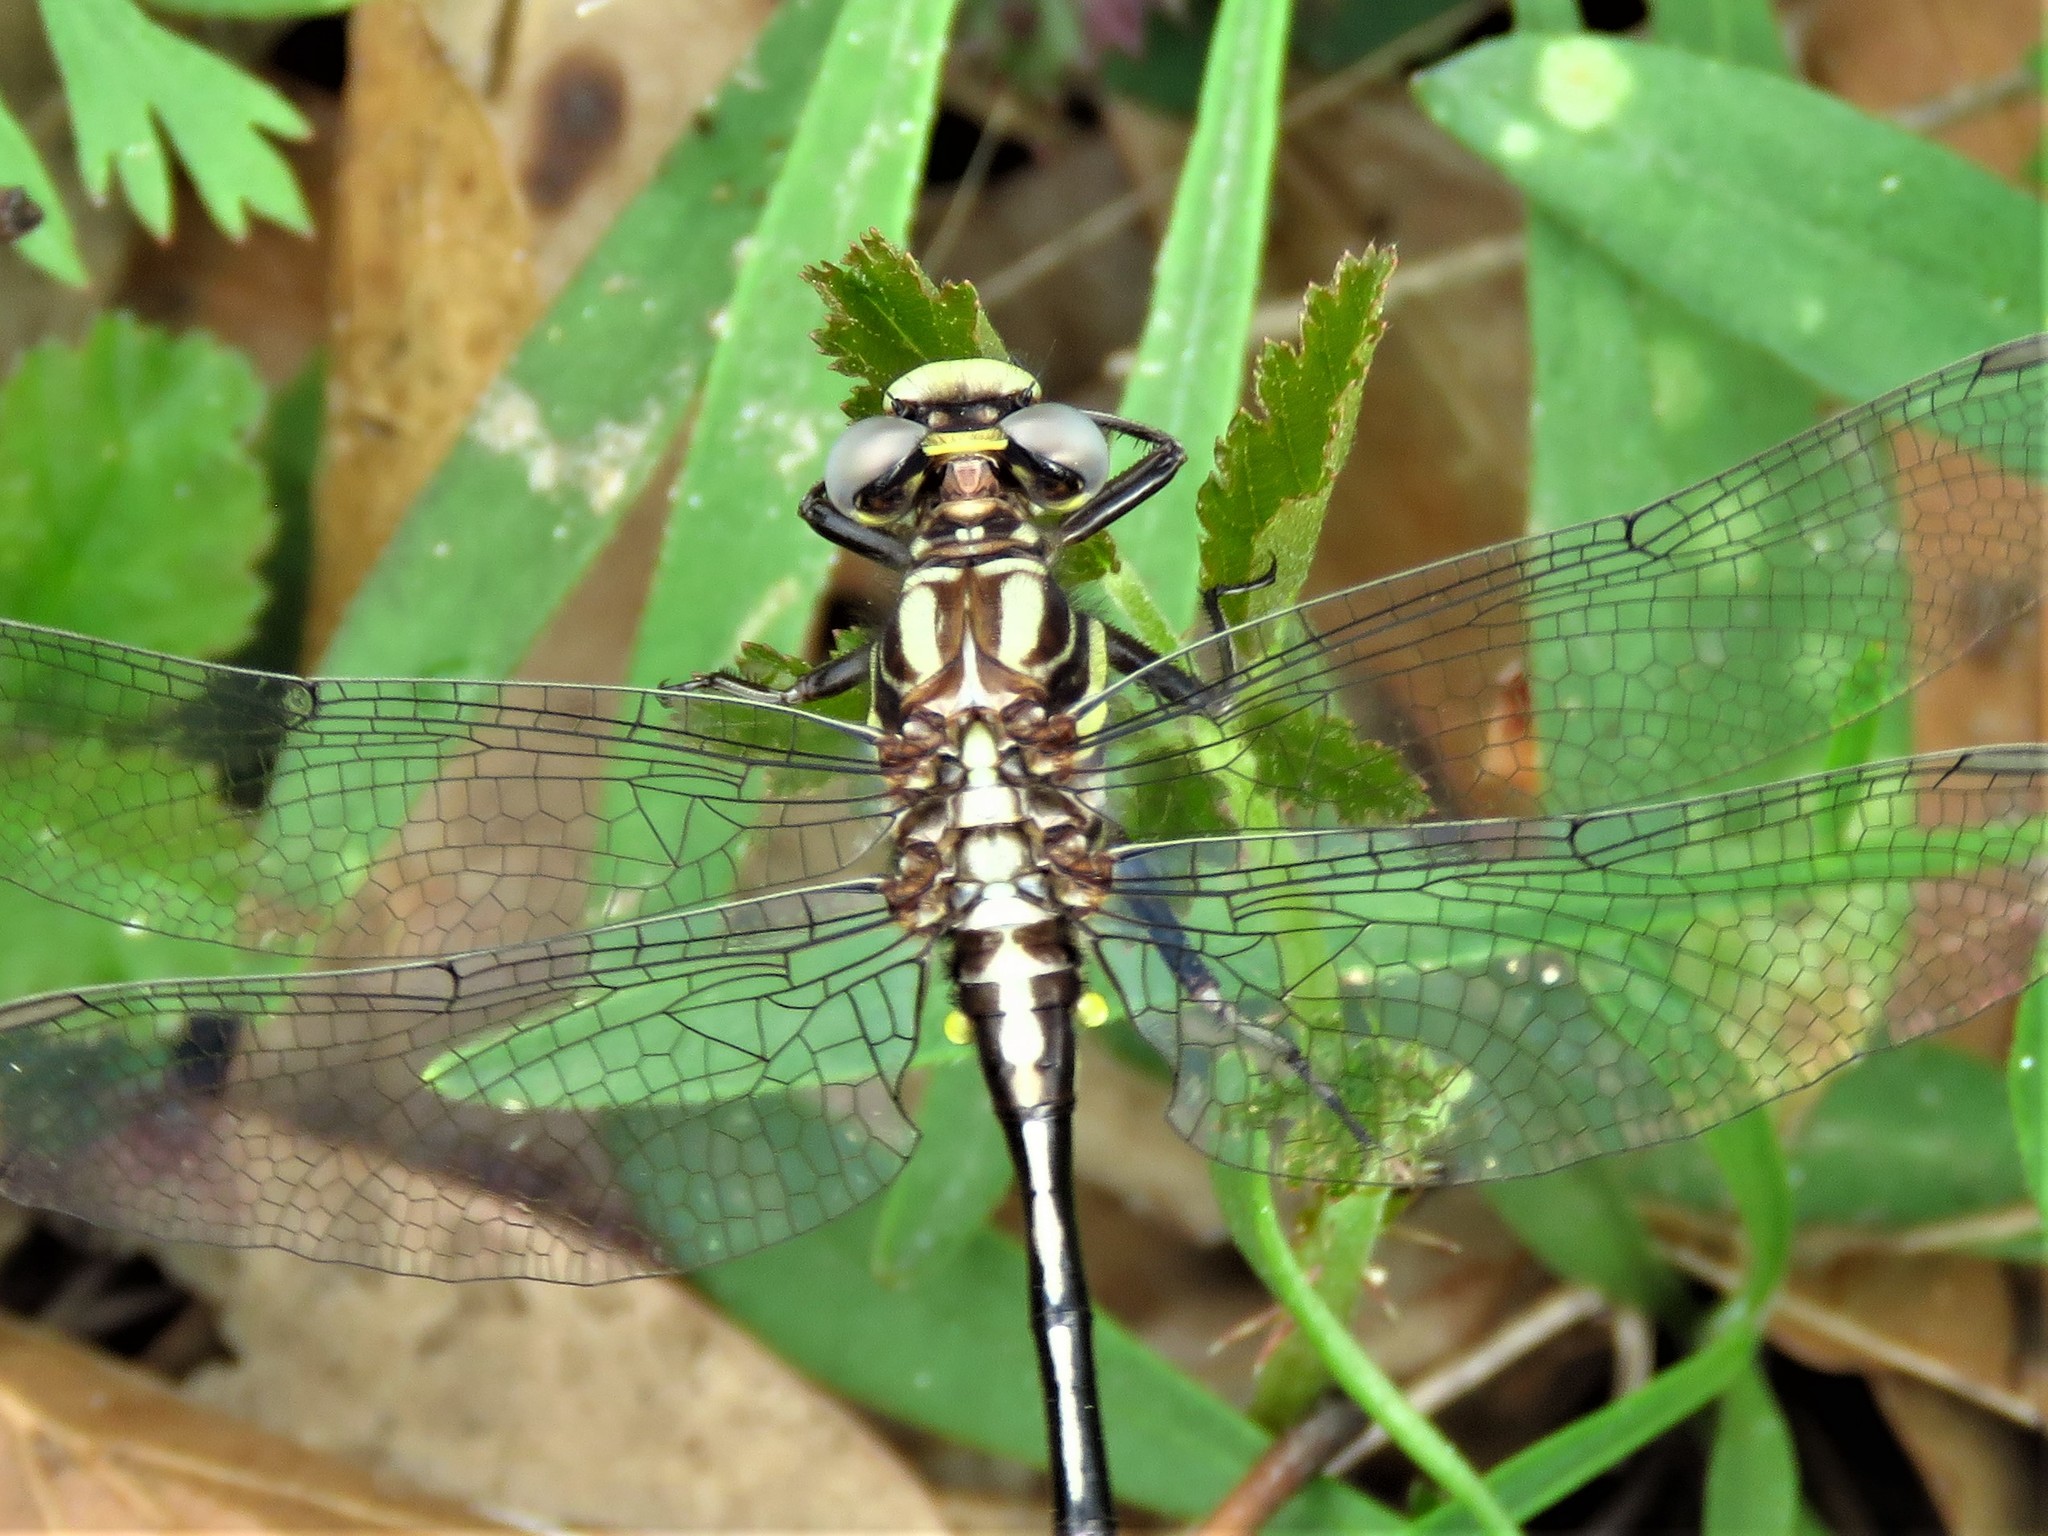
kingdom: Animalia
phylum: Arthropoda
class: Insecta
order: Odonata
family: Gomphidae
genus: Phanogomphus
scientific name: Phanogomphus oklahomensis
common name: Oklahoma clubtail
